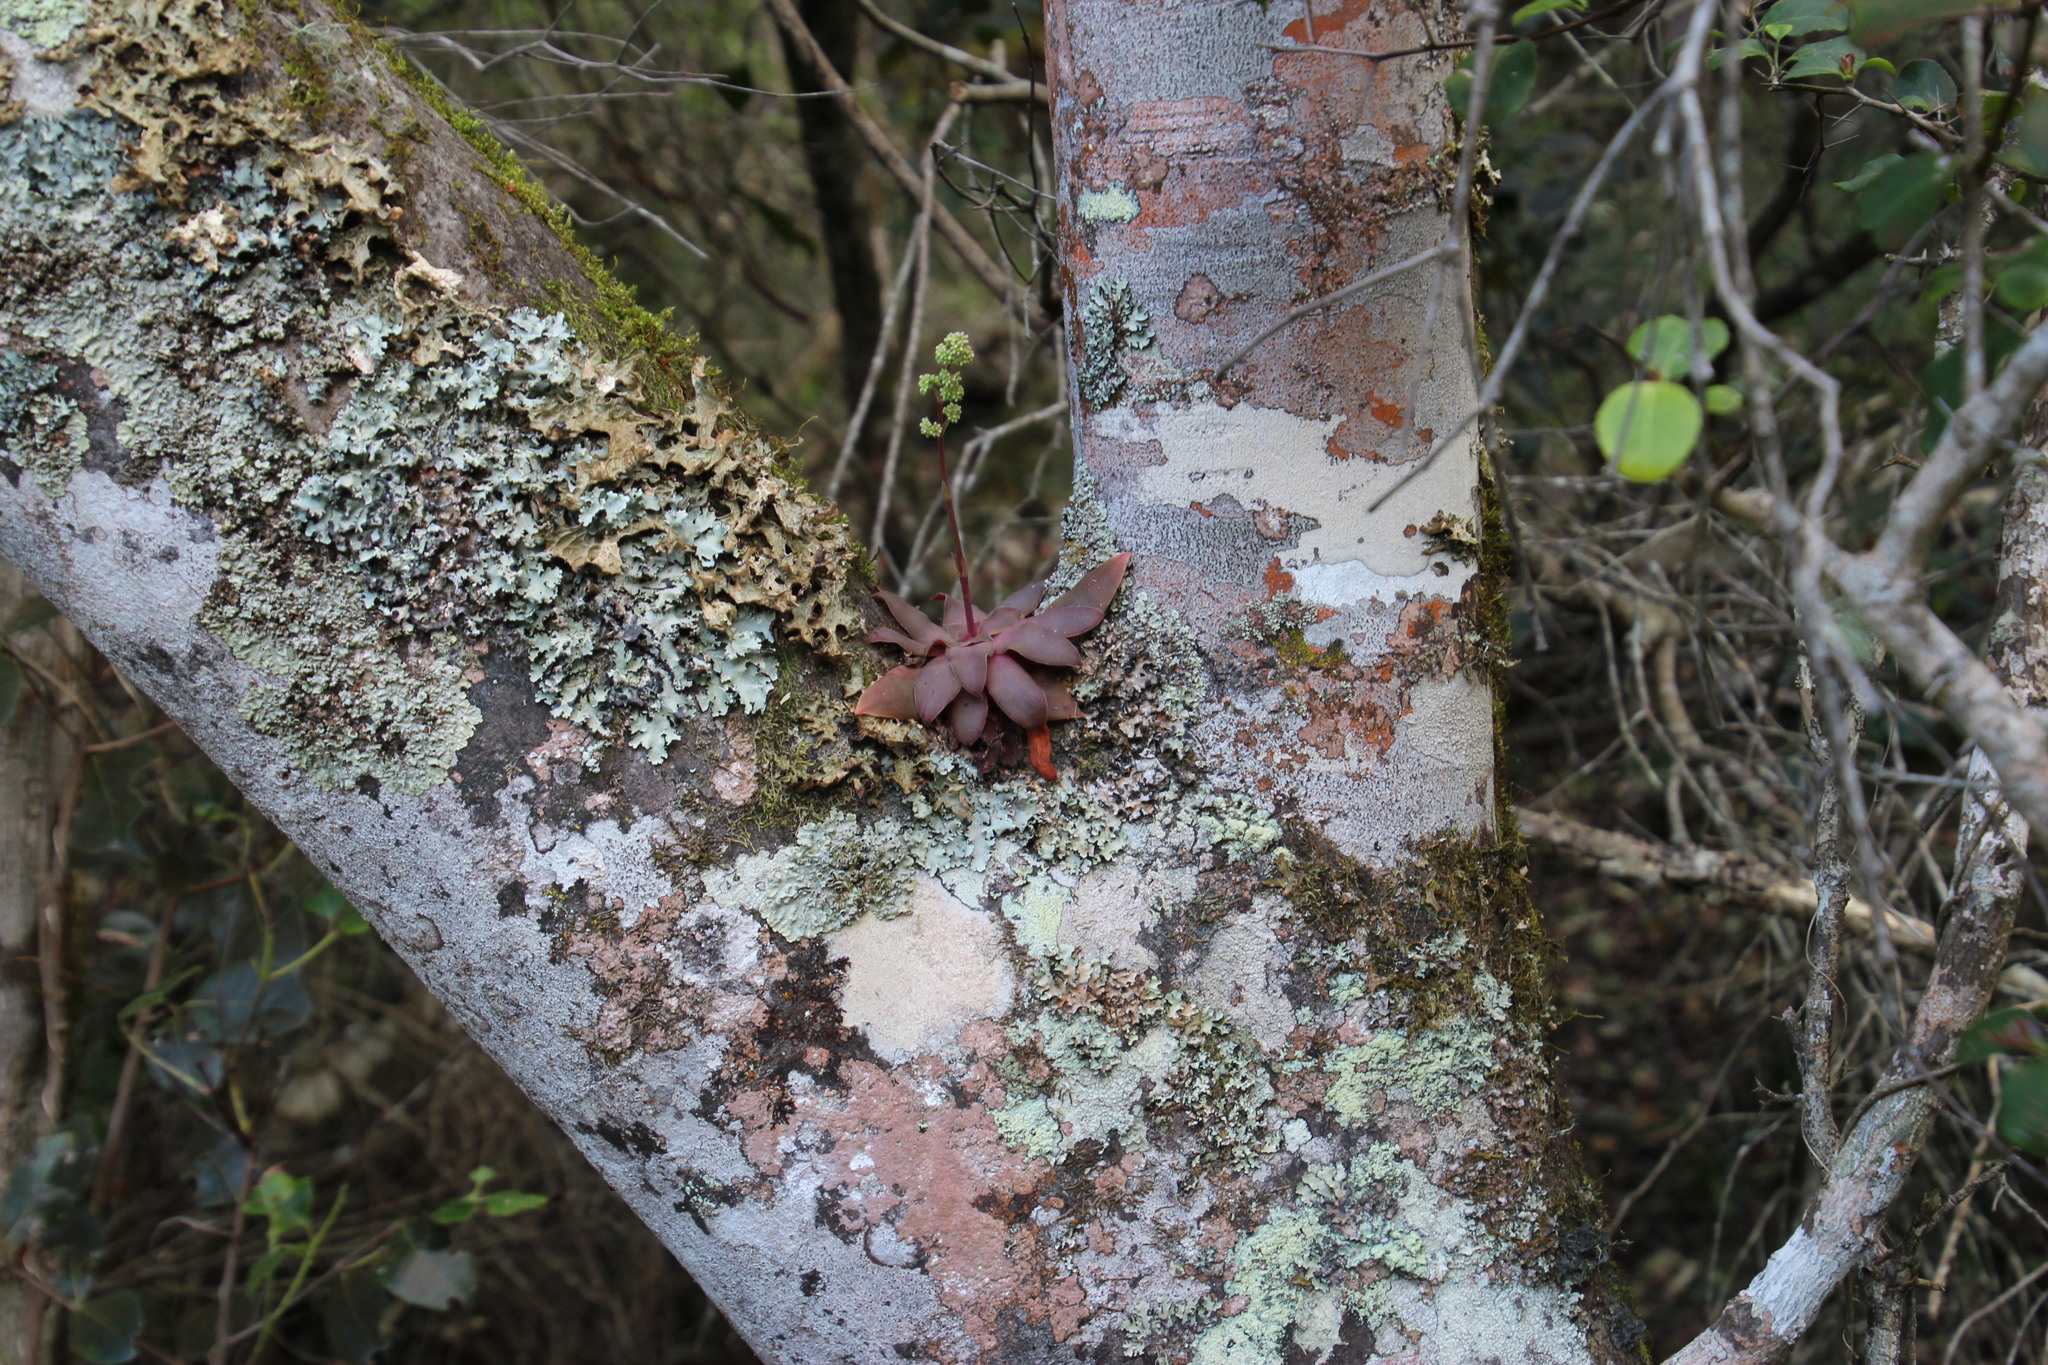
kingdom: Plantae
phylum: Tracheophyta
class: Magnoliopsida
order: Saxifragales
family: Crassulaceae
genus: Crassula
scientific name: Crassula orbicularis
